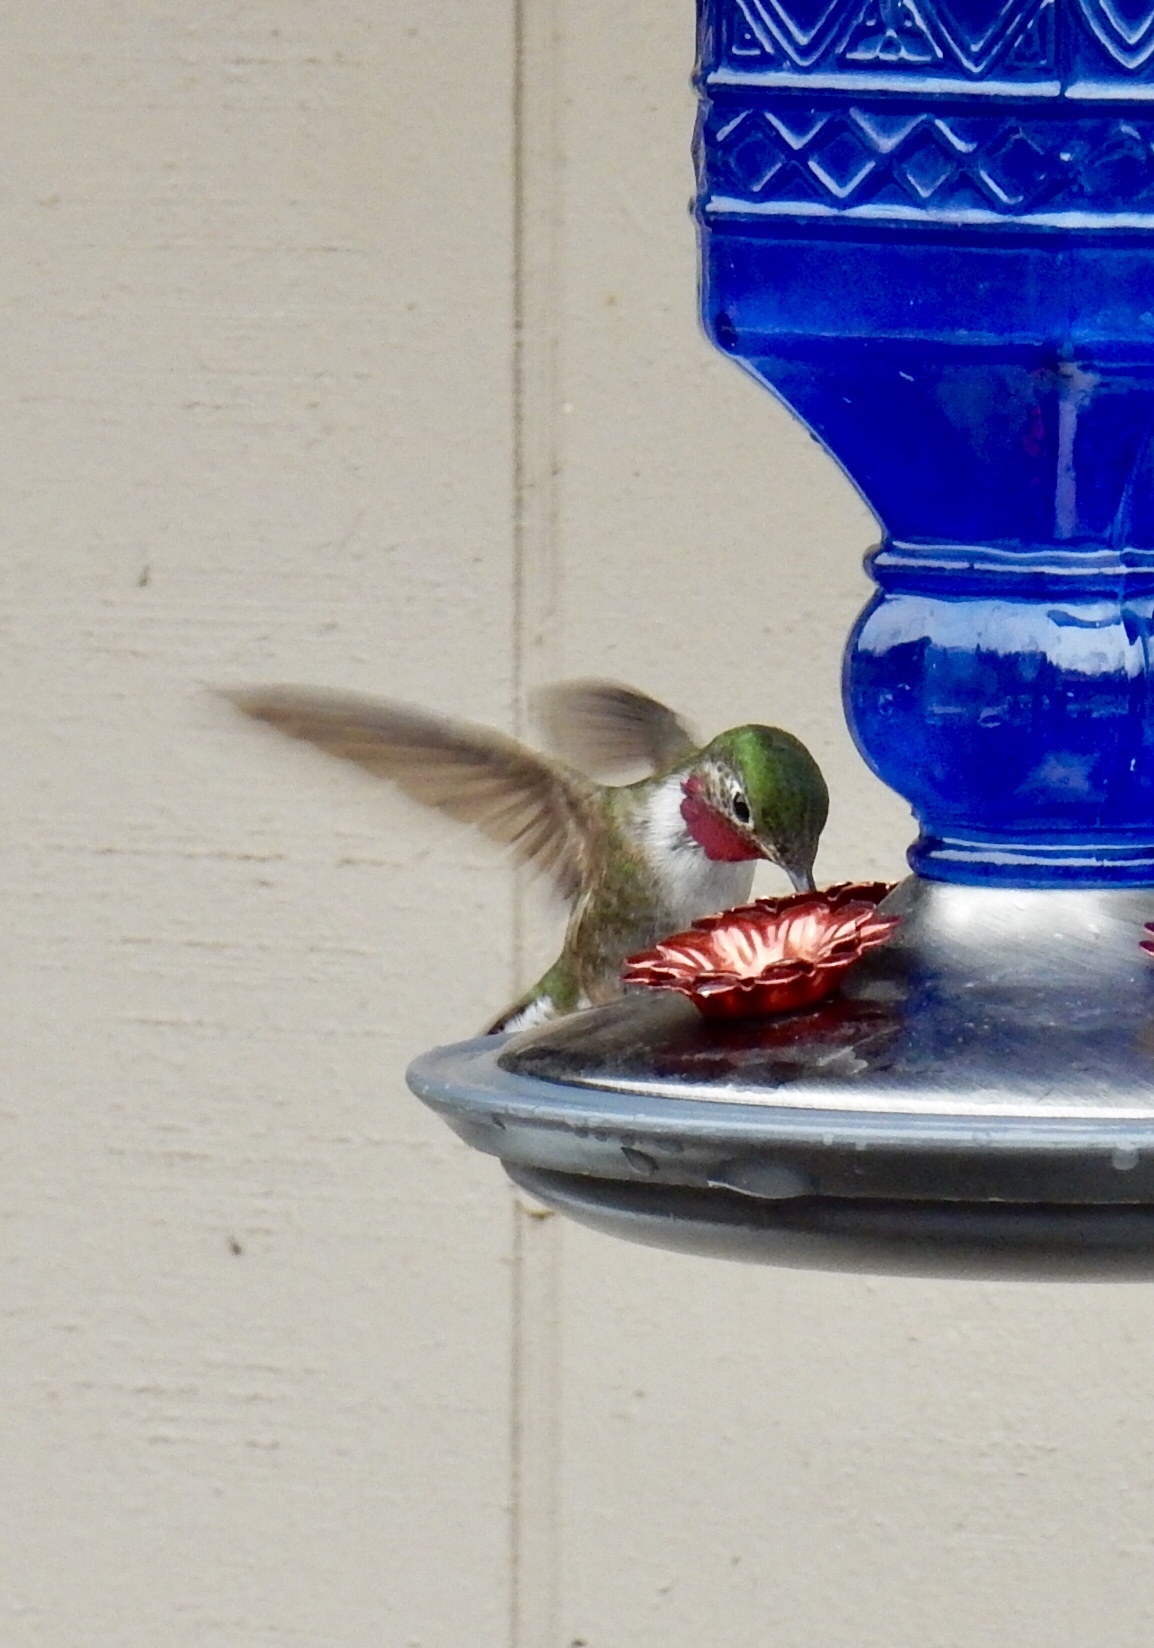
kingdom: Animalia
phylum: Chordata
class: Aves
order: Apodiformes
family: Trochilidae
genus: Selasphorus
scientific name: Selasphorus platycercus
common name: Broad-tailed hummingbird
